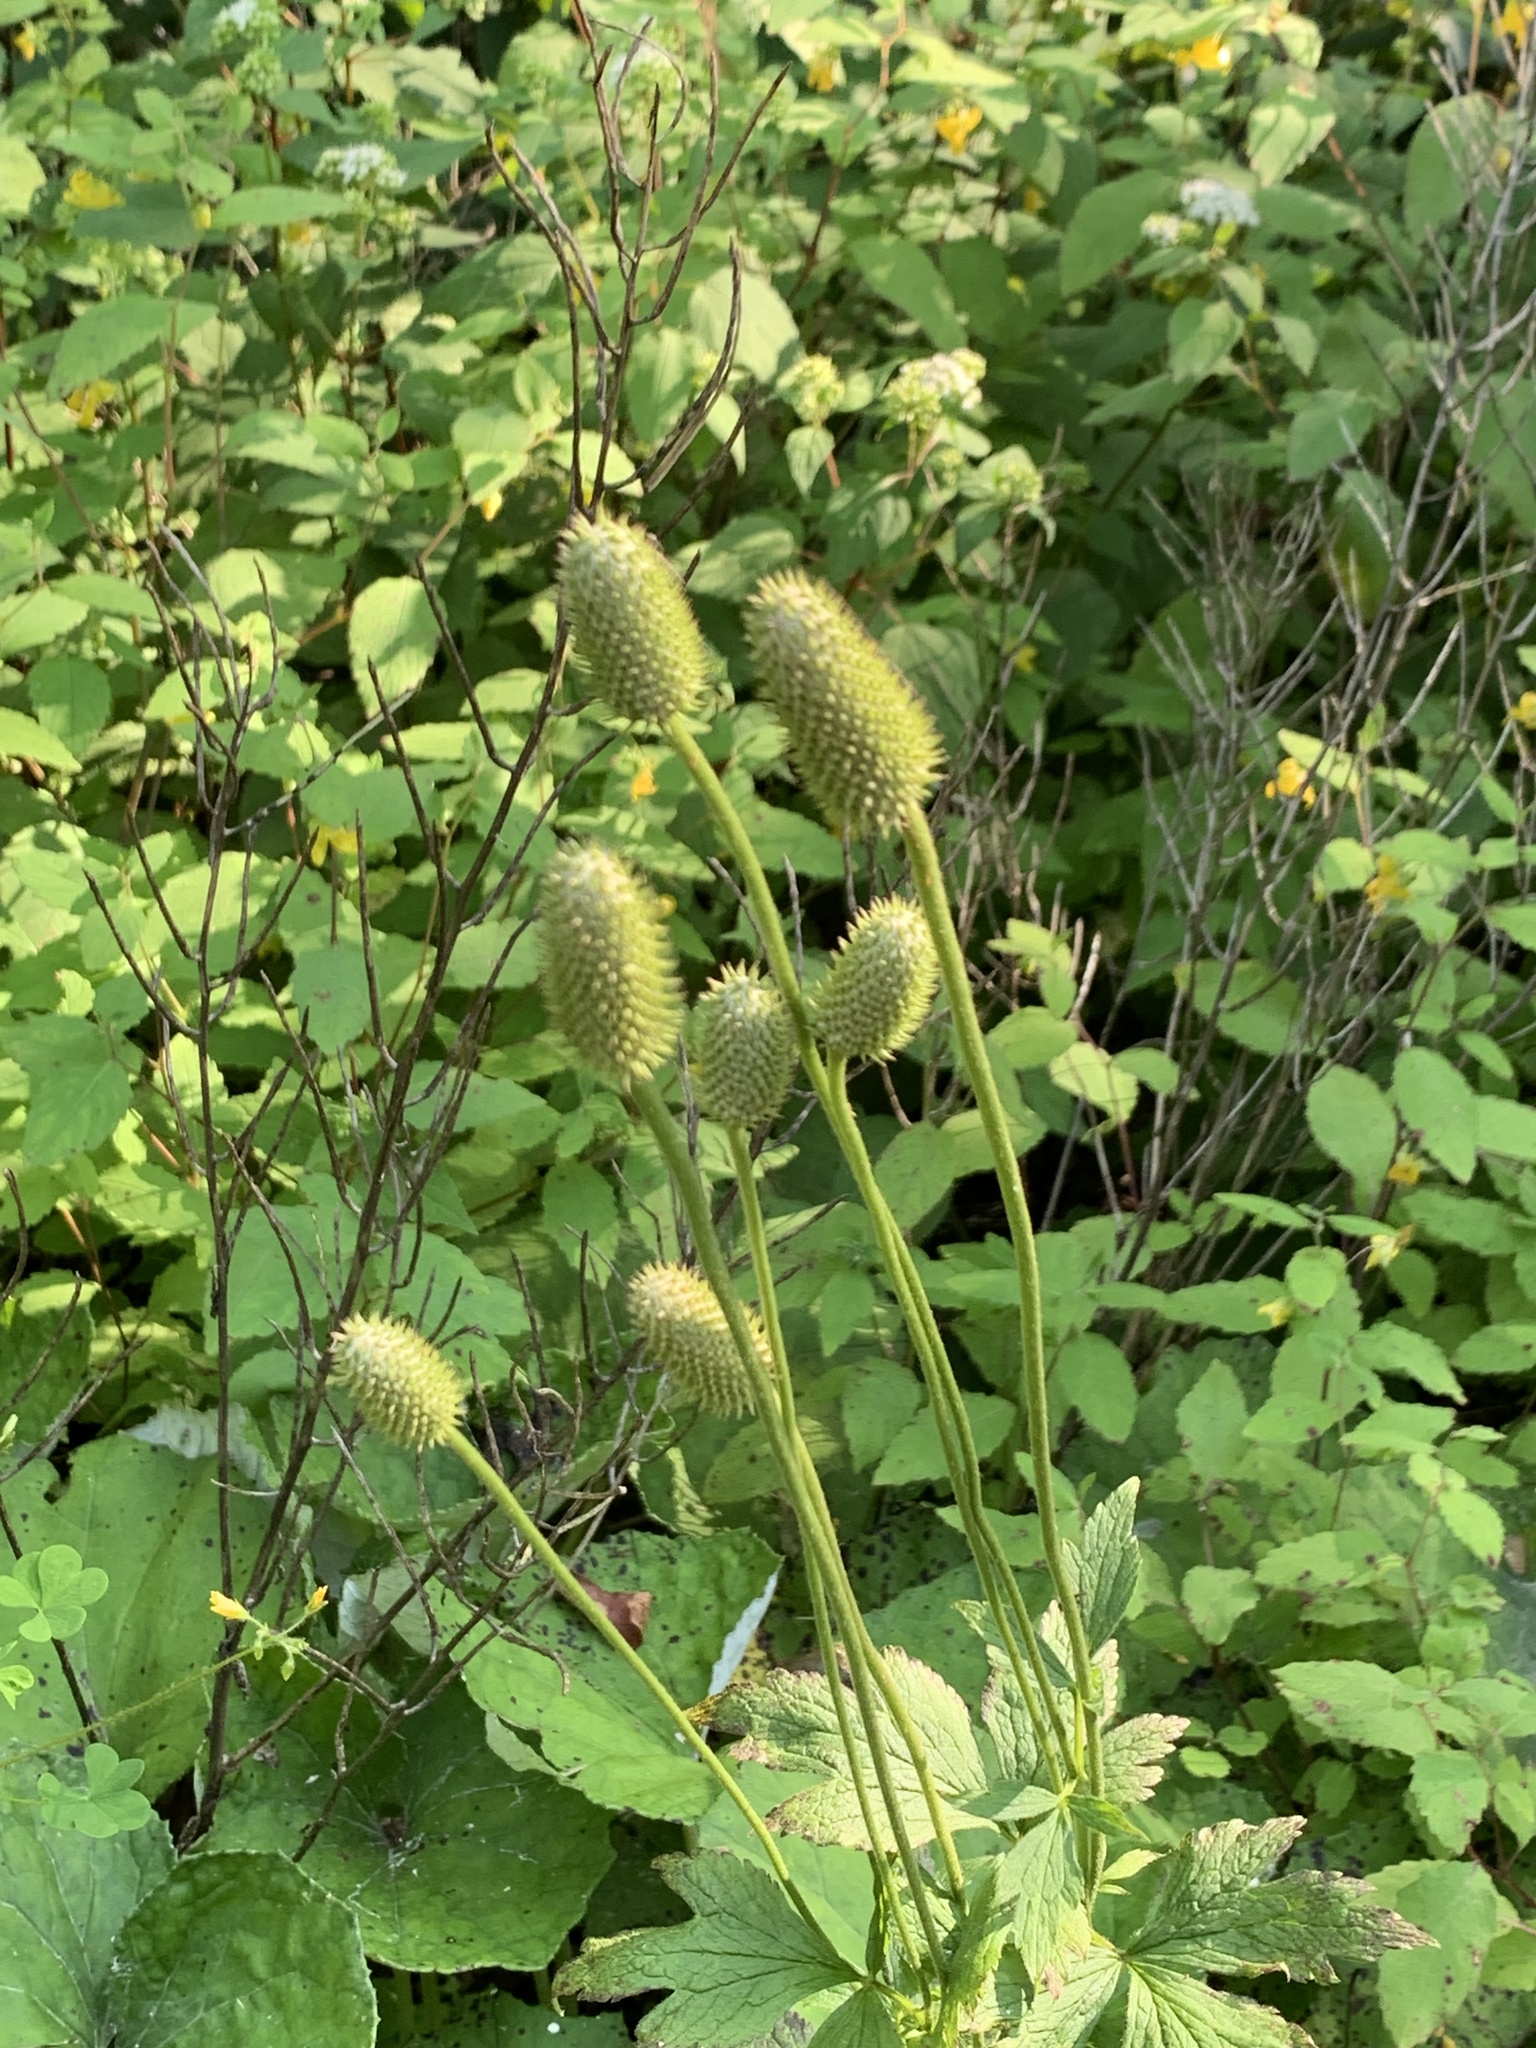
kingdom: Plantae
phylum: Tracheophyta
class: Magnoliopsida
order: Ranunculales
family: Ranunculaceae
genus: Anemone
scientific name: Anemone virginiana
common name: Tall anemone
